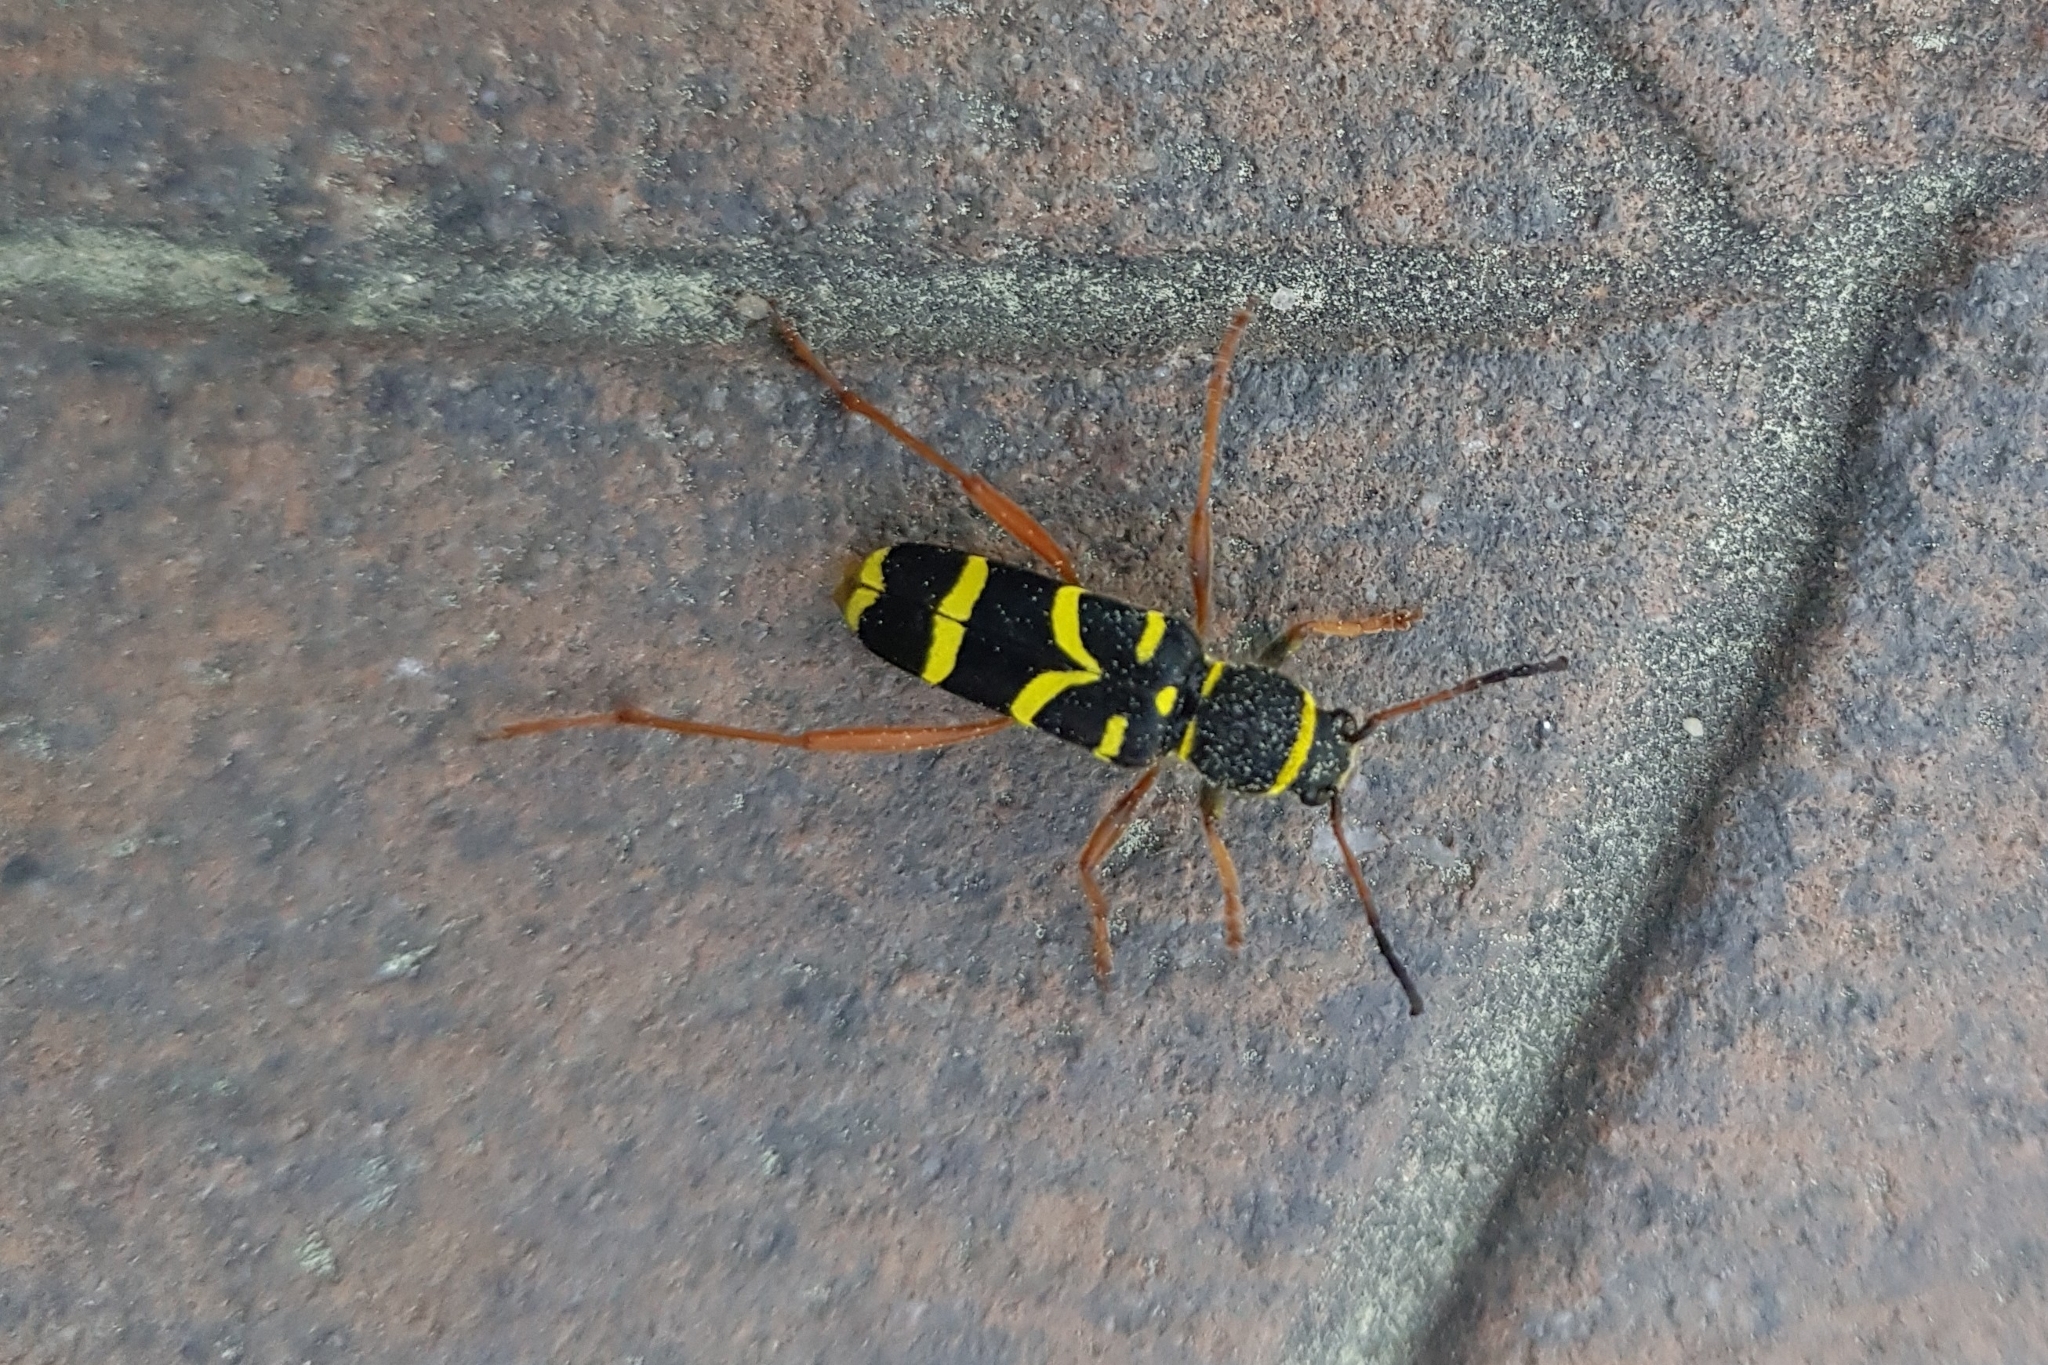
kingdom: Animalia
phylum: Arthropoda
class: Insecta
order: Coleoptera
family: Cerambycidae
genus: Clytus
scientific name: Clytus arietis
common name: Wasp beetle
